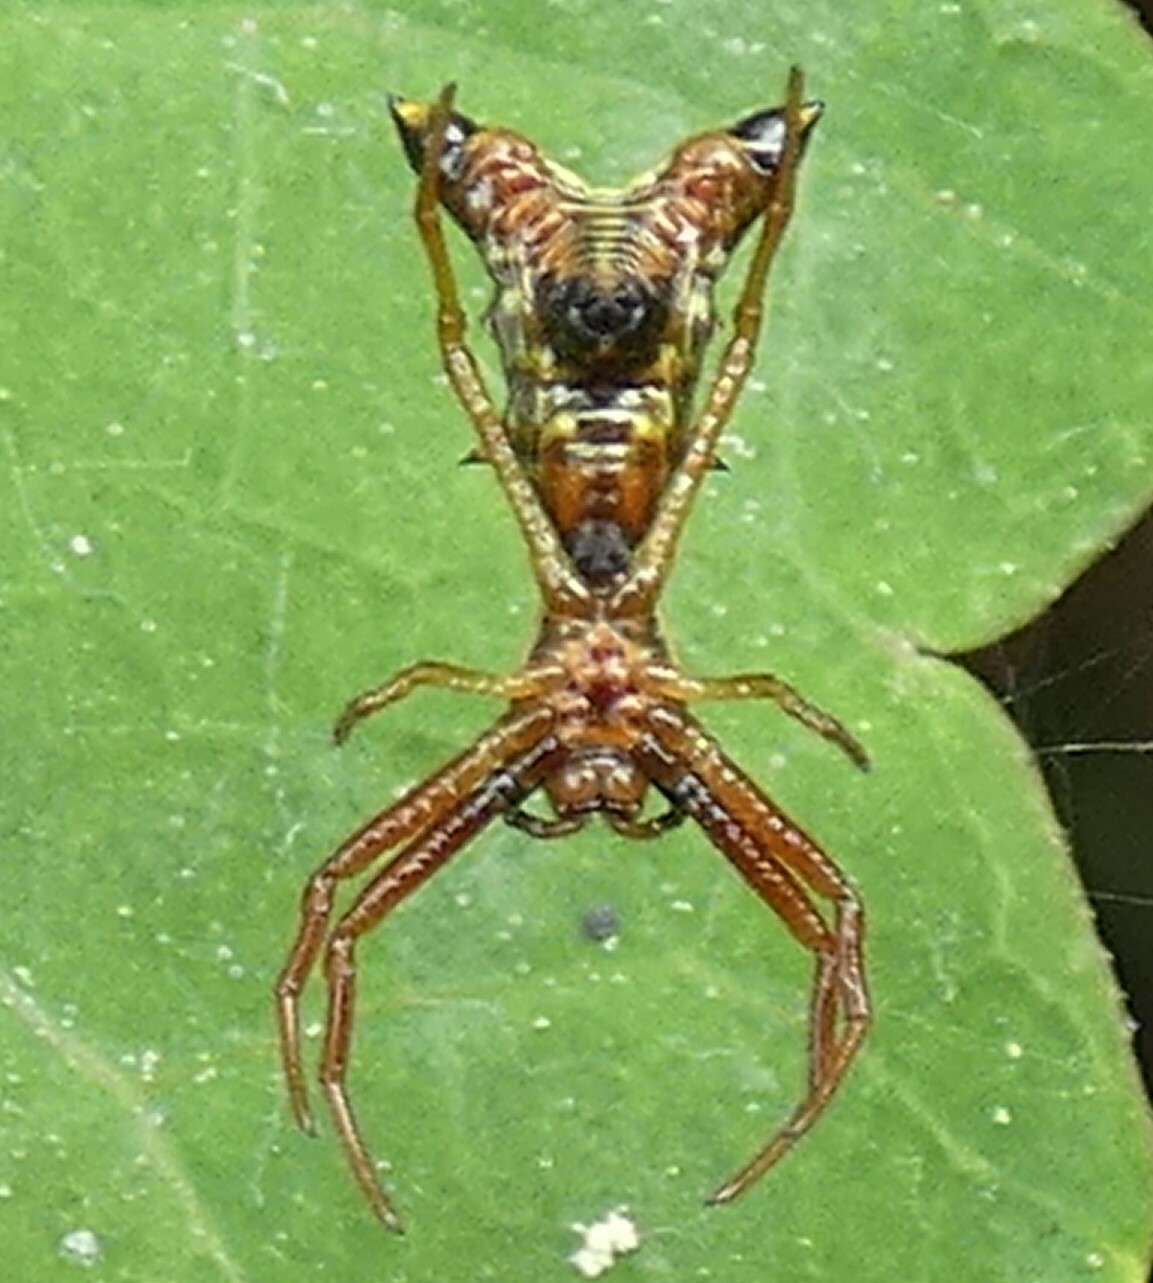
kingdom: Animalia
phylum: Arthropoda
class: Arachnida
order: Araneae
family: Araneidae
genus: Micrathena
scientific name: Micrathena sagittata
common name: Orb weavers
